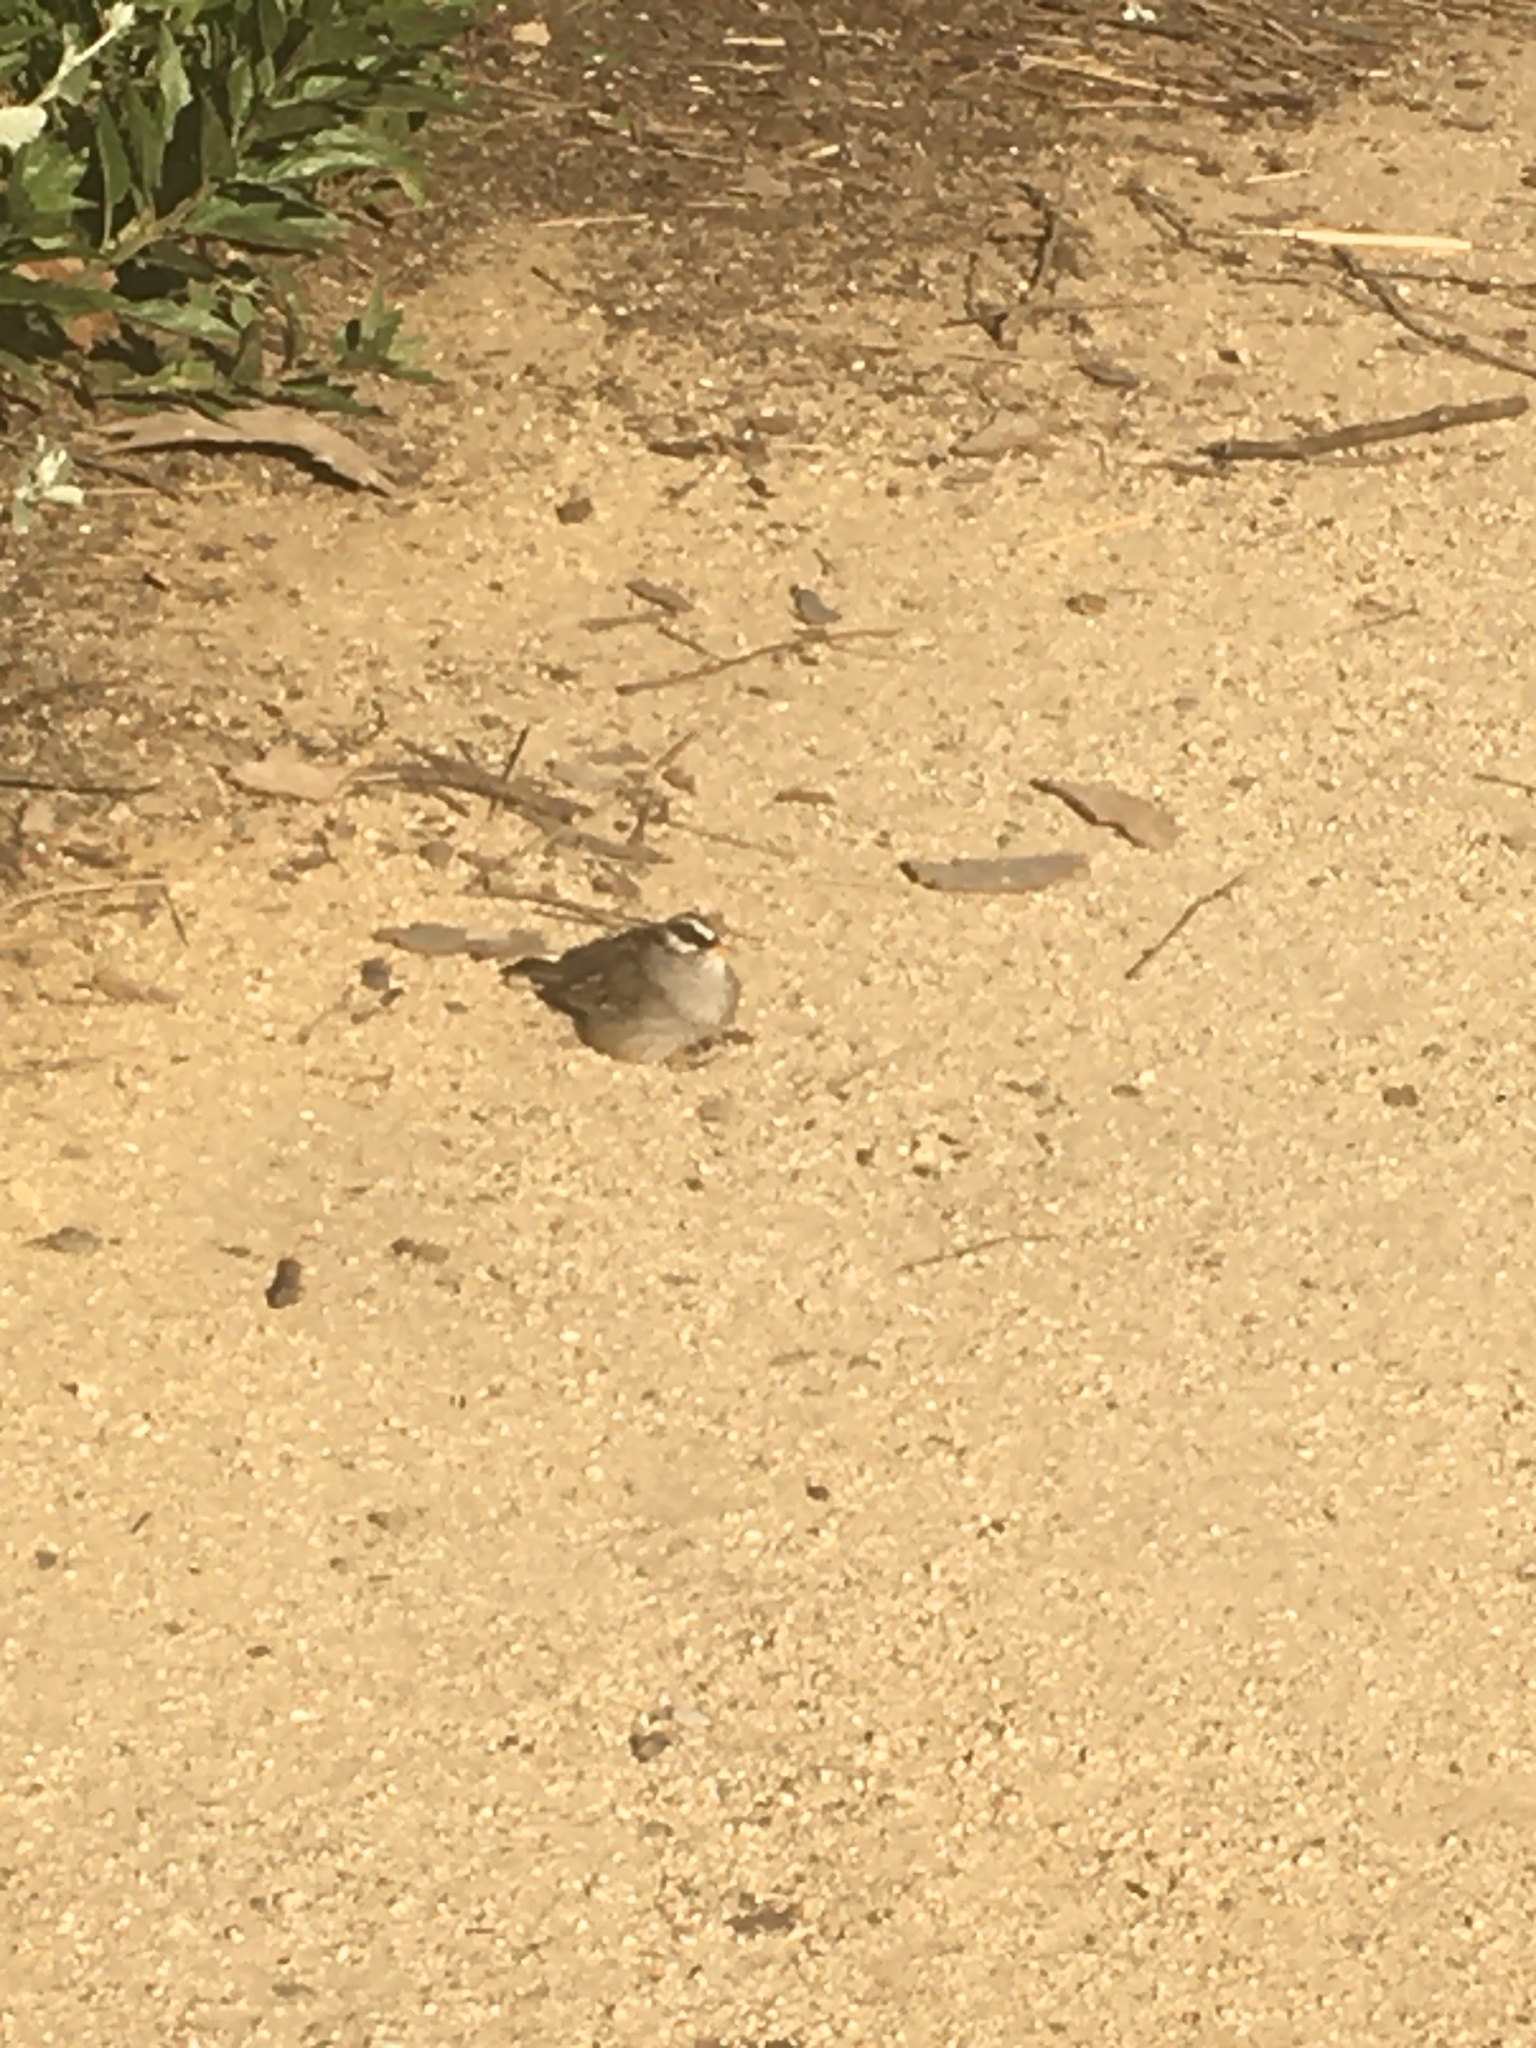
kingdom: Animalia
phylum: Chordata
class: Aves
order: Passeriformes
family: Passerellidae
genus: Zonotrichia
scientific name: Zonotrichia leucophrys
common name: White-crowned sparrow
